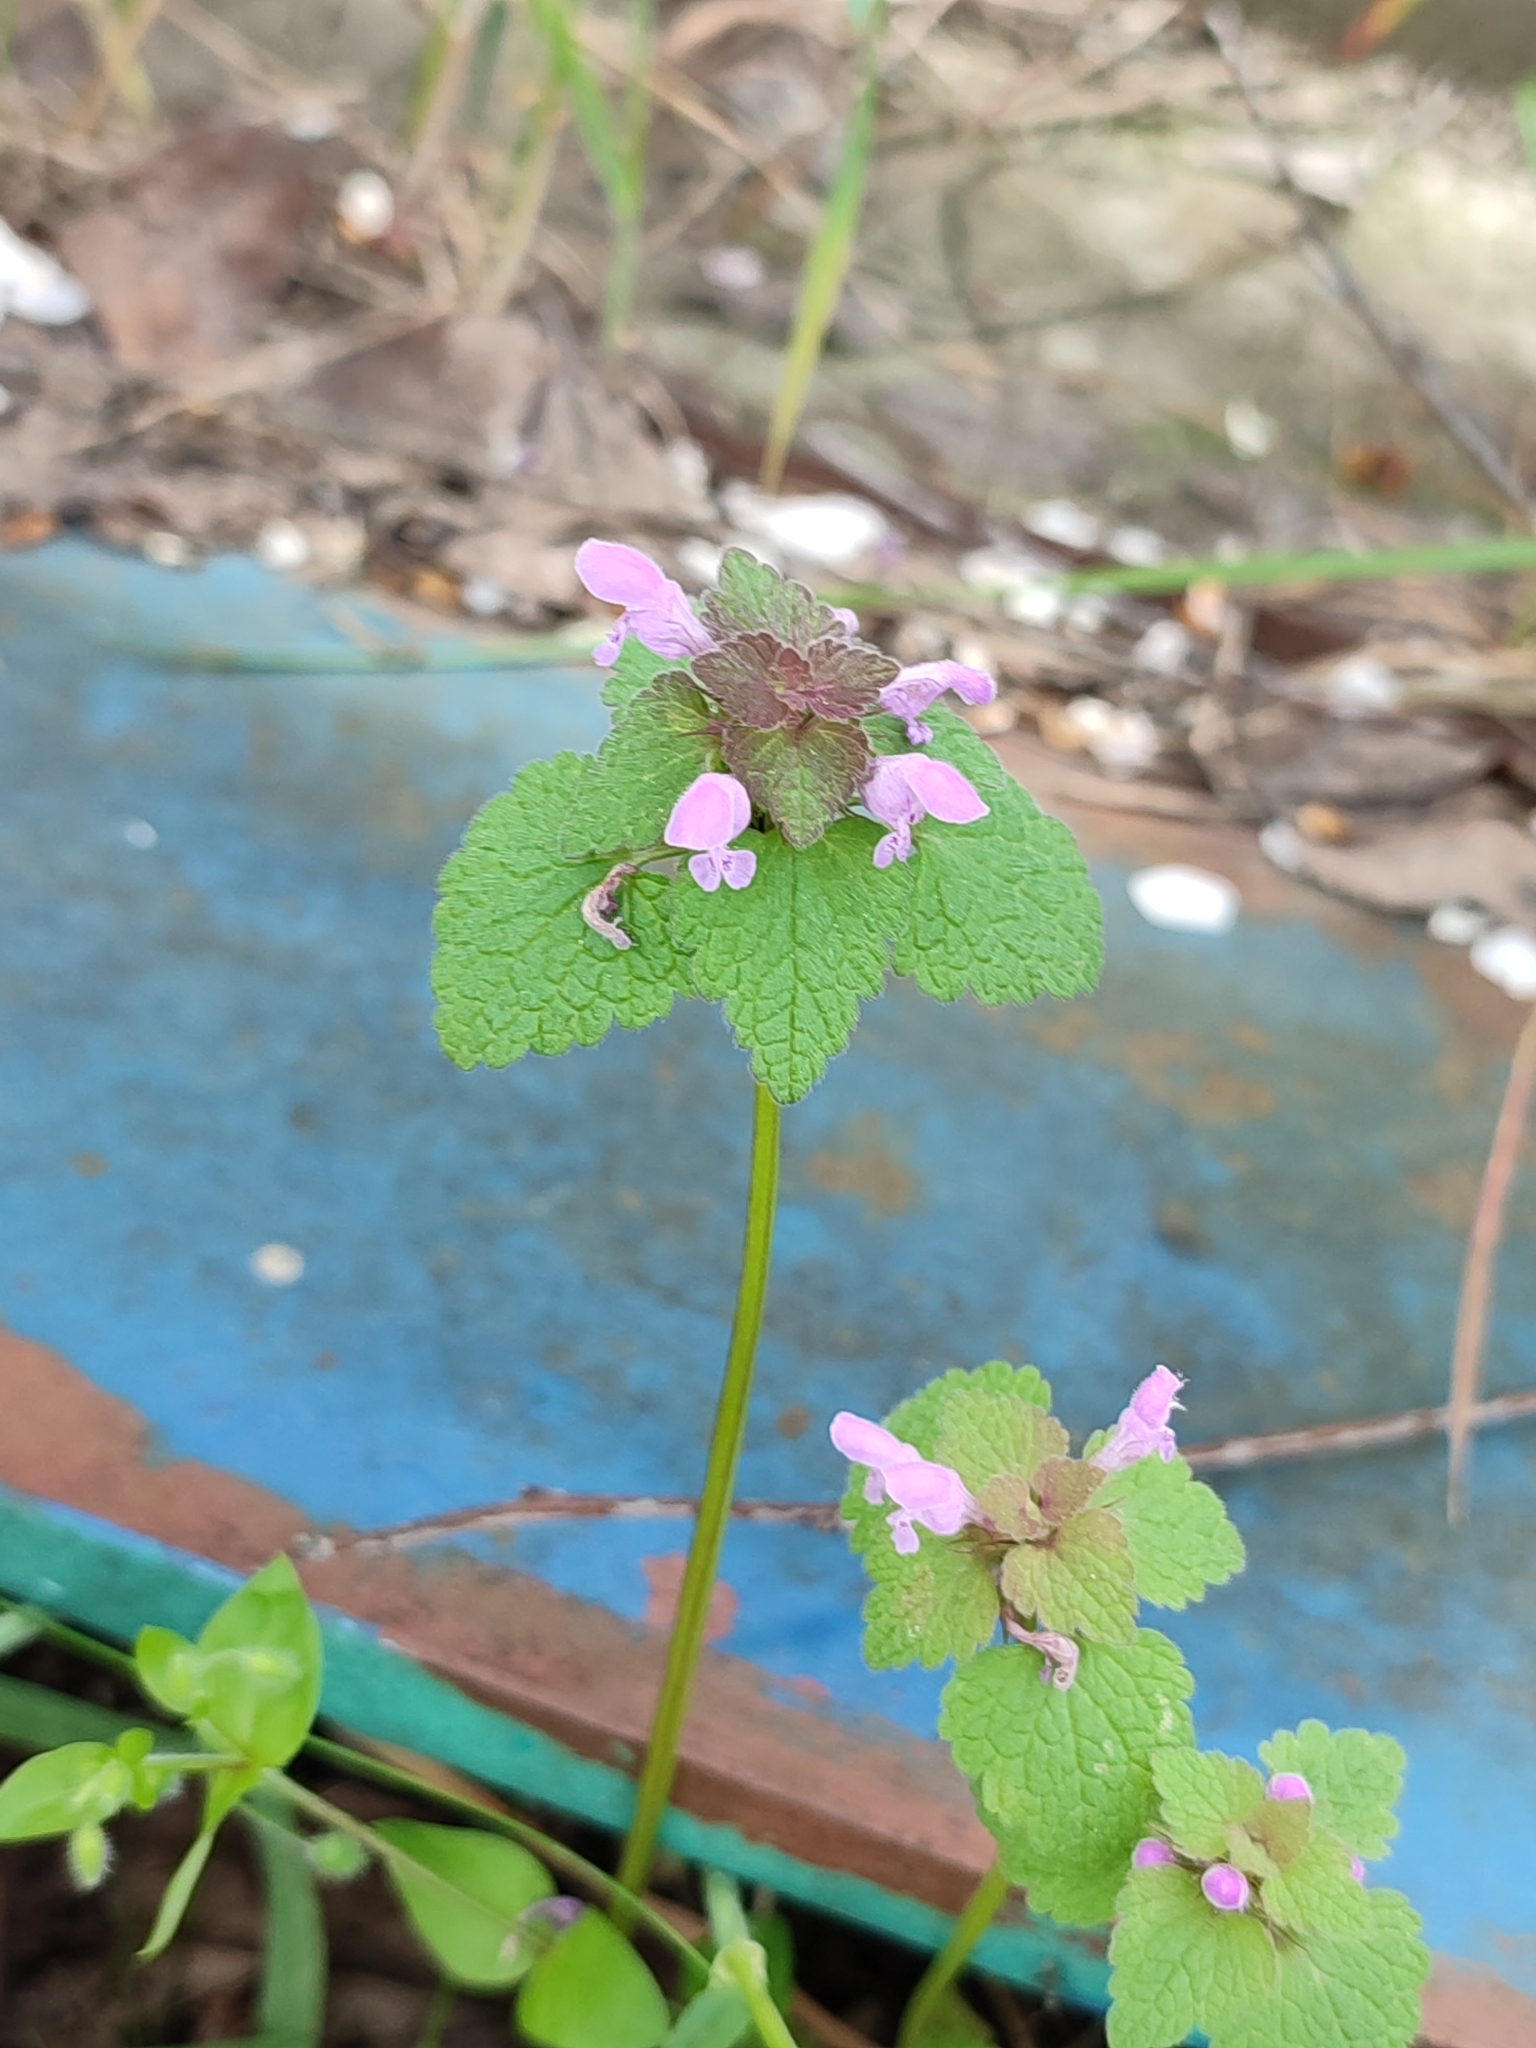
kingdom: Plantae
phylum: Tracheophyta
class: Magnoliopsida
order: Lamiales
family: Lamiaceae
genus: Lamium
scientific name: Lamium purpureum
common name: Red dead-nettle
